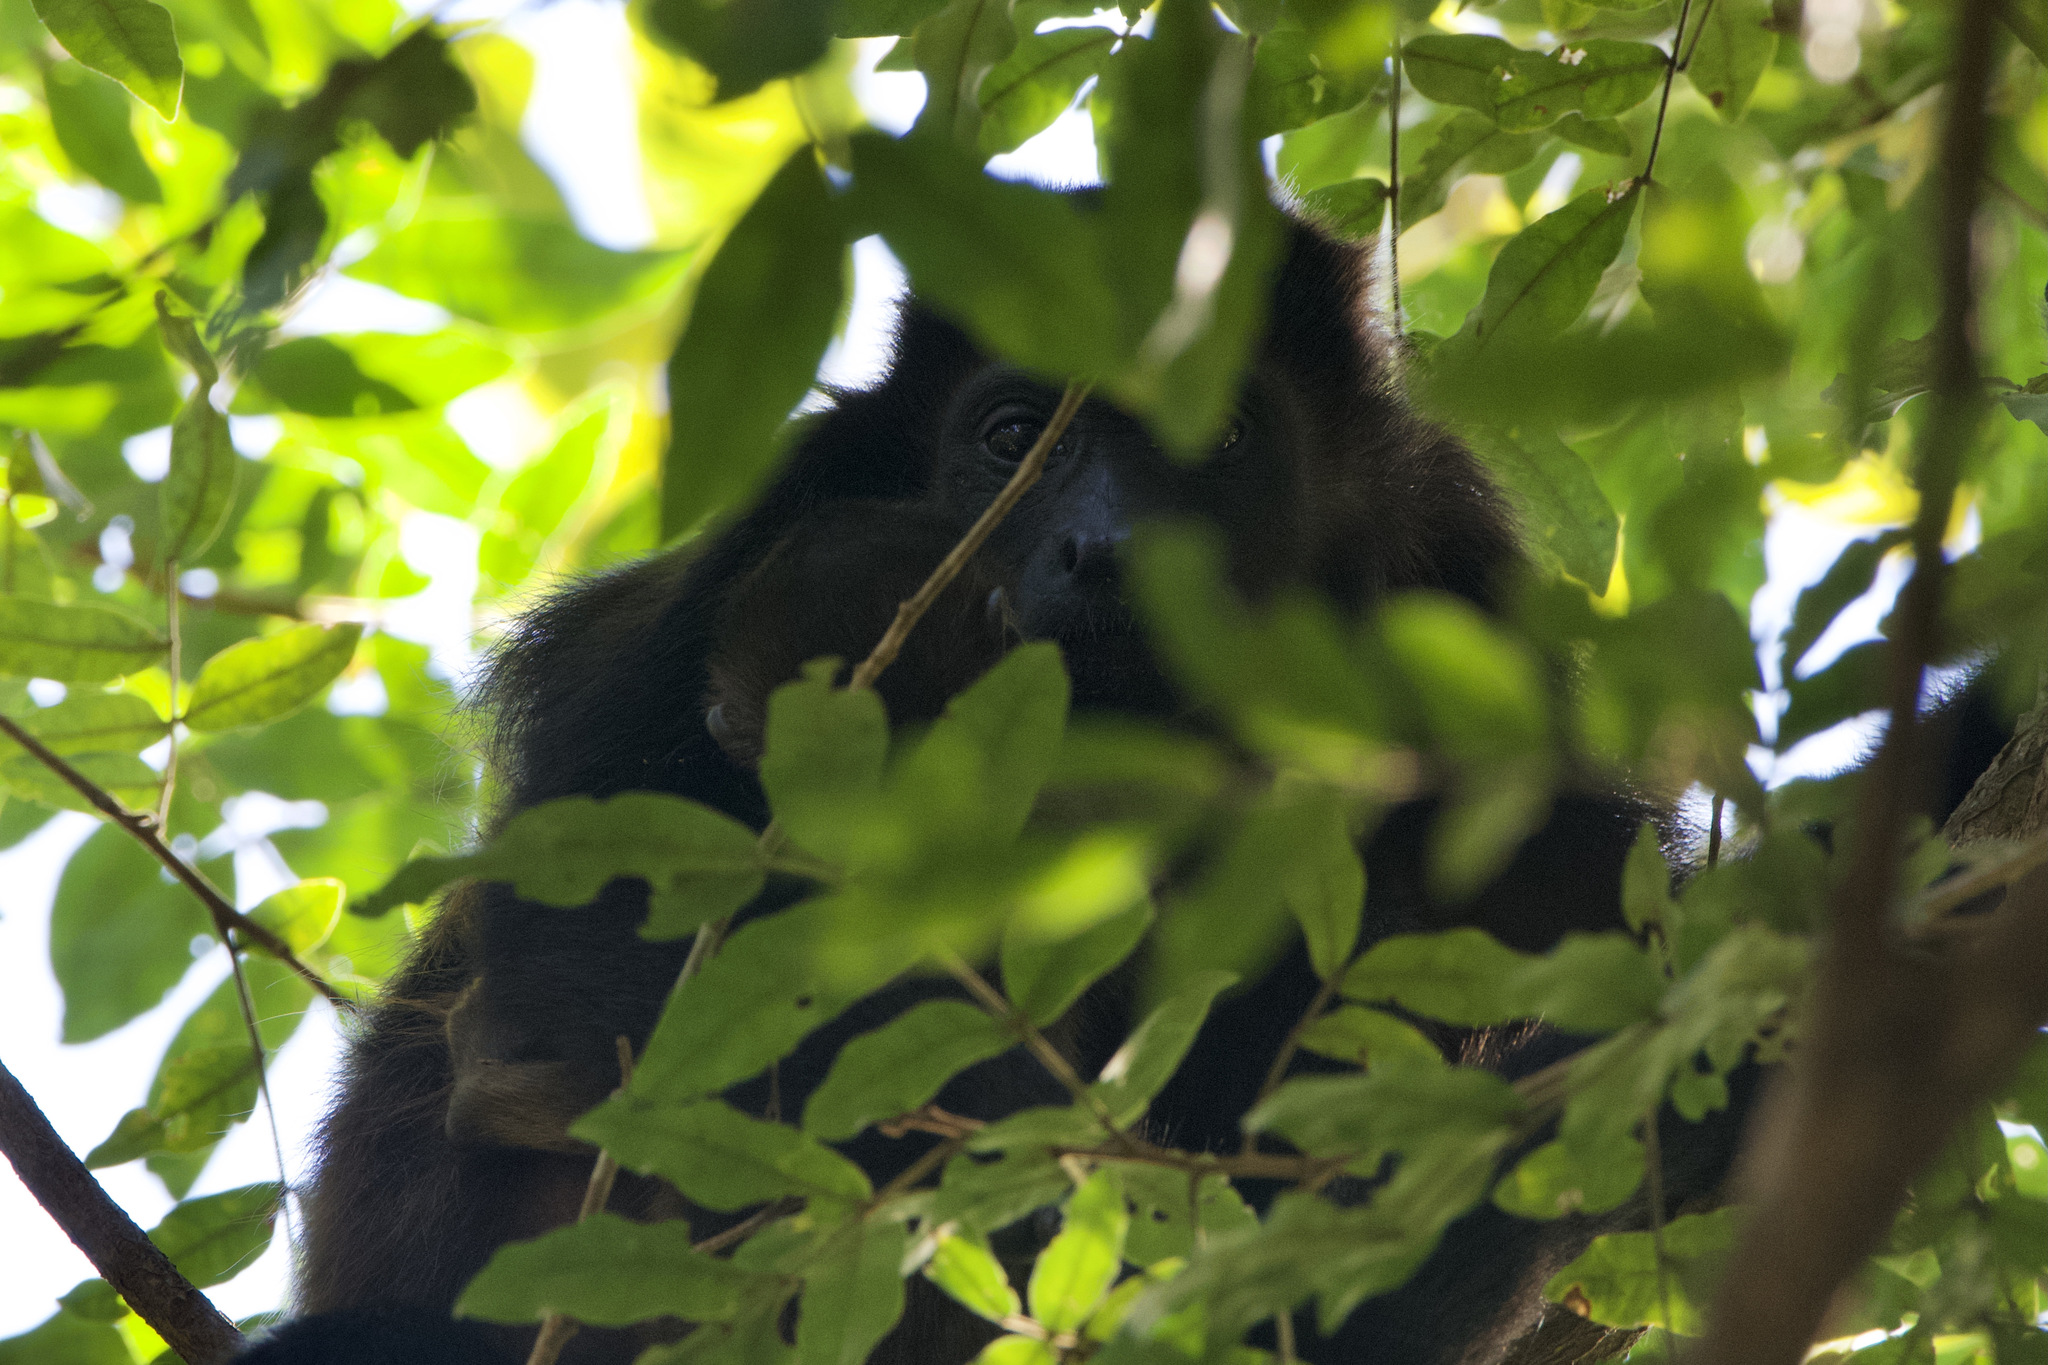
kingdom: Animalia
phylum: Chordata
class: Mammalia
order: Primates
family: Atelidae
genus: Alouatta
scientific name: Alouatta palliata
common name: Mantled howler
